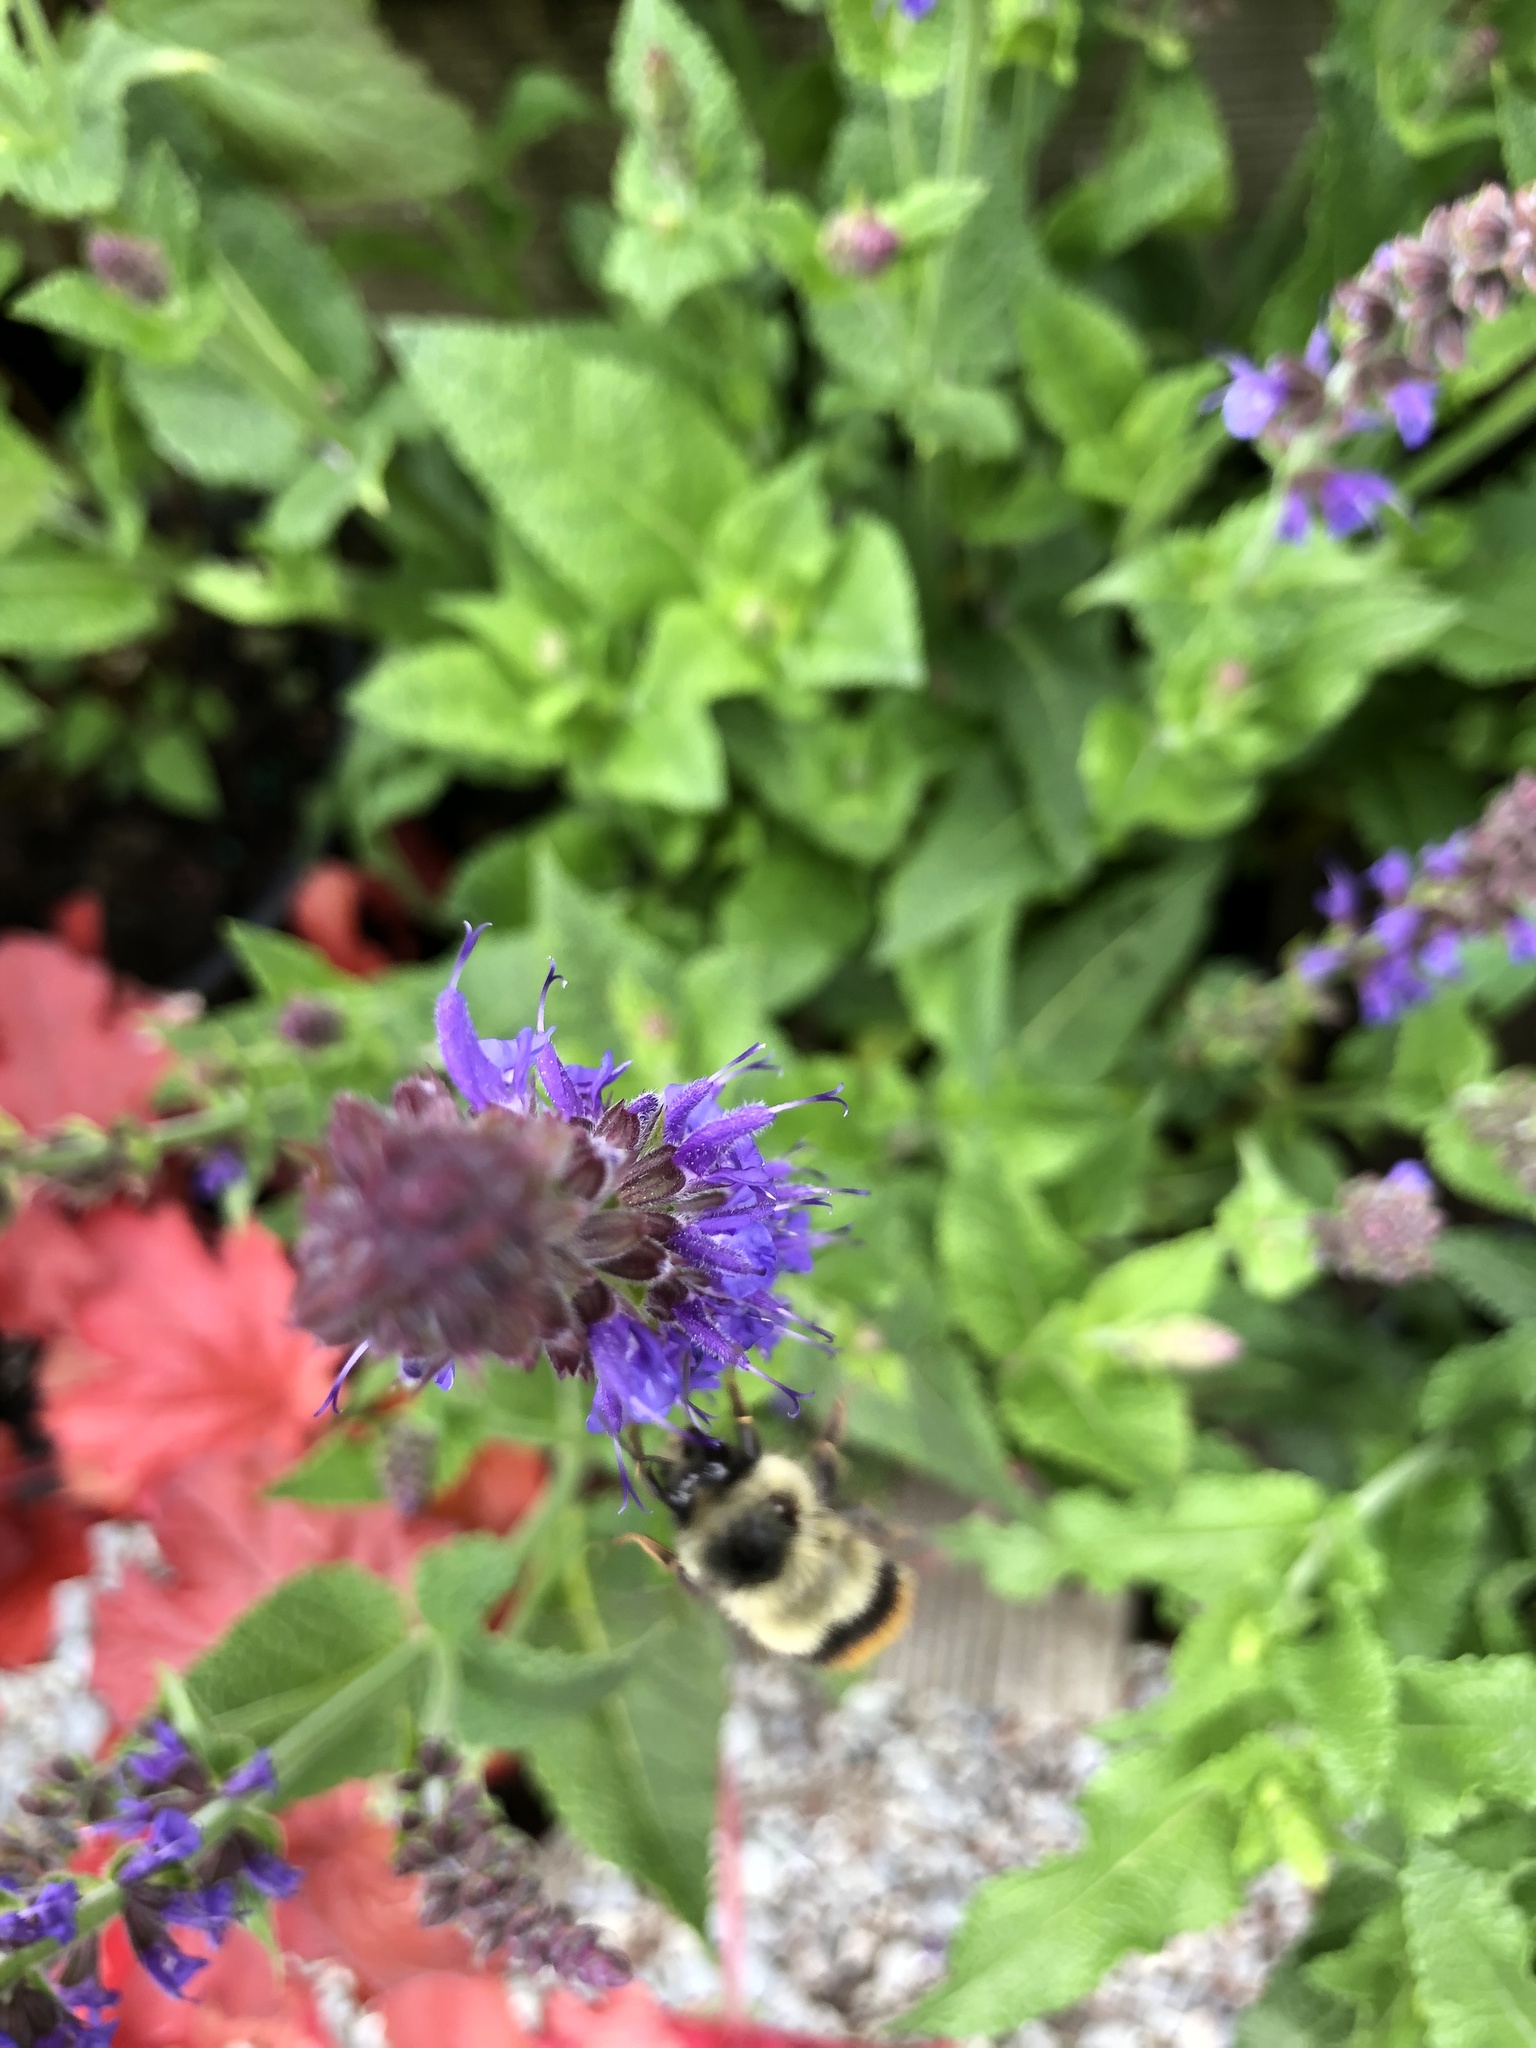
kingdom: Animalia
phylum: Arthropoda
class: Insecta
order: Hymenoptera
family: Apidae
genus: Bombus
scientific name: Bombus mixtus
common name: Fuzzy-horned bumble bee
